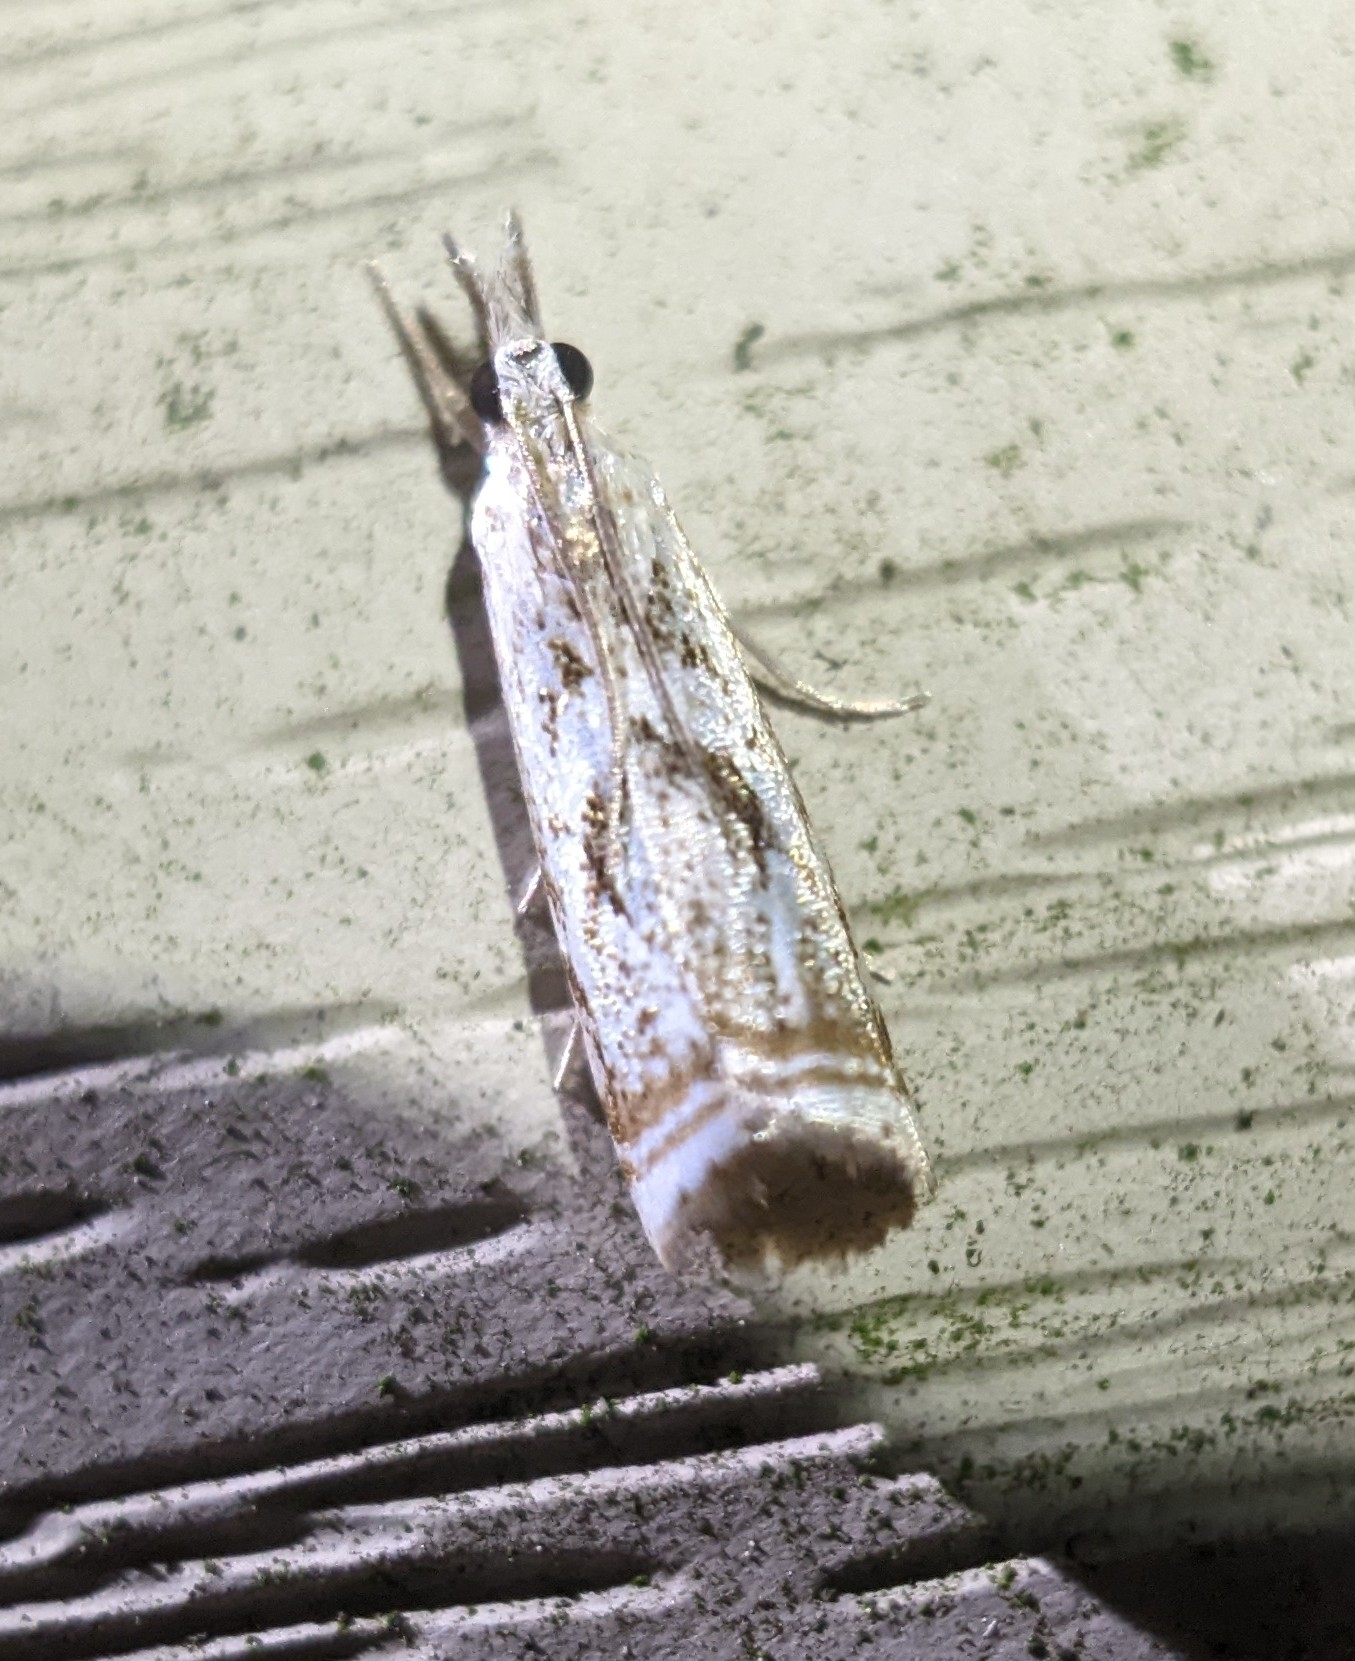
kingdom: Animalia
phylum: Arthropoda
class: Insecta
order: Lepidoptera
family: Crambidae
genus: Microcrambus
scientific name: Microcrambus elegans
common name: Elegant grass-veneer
